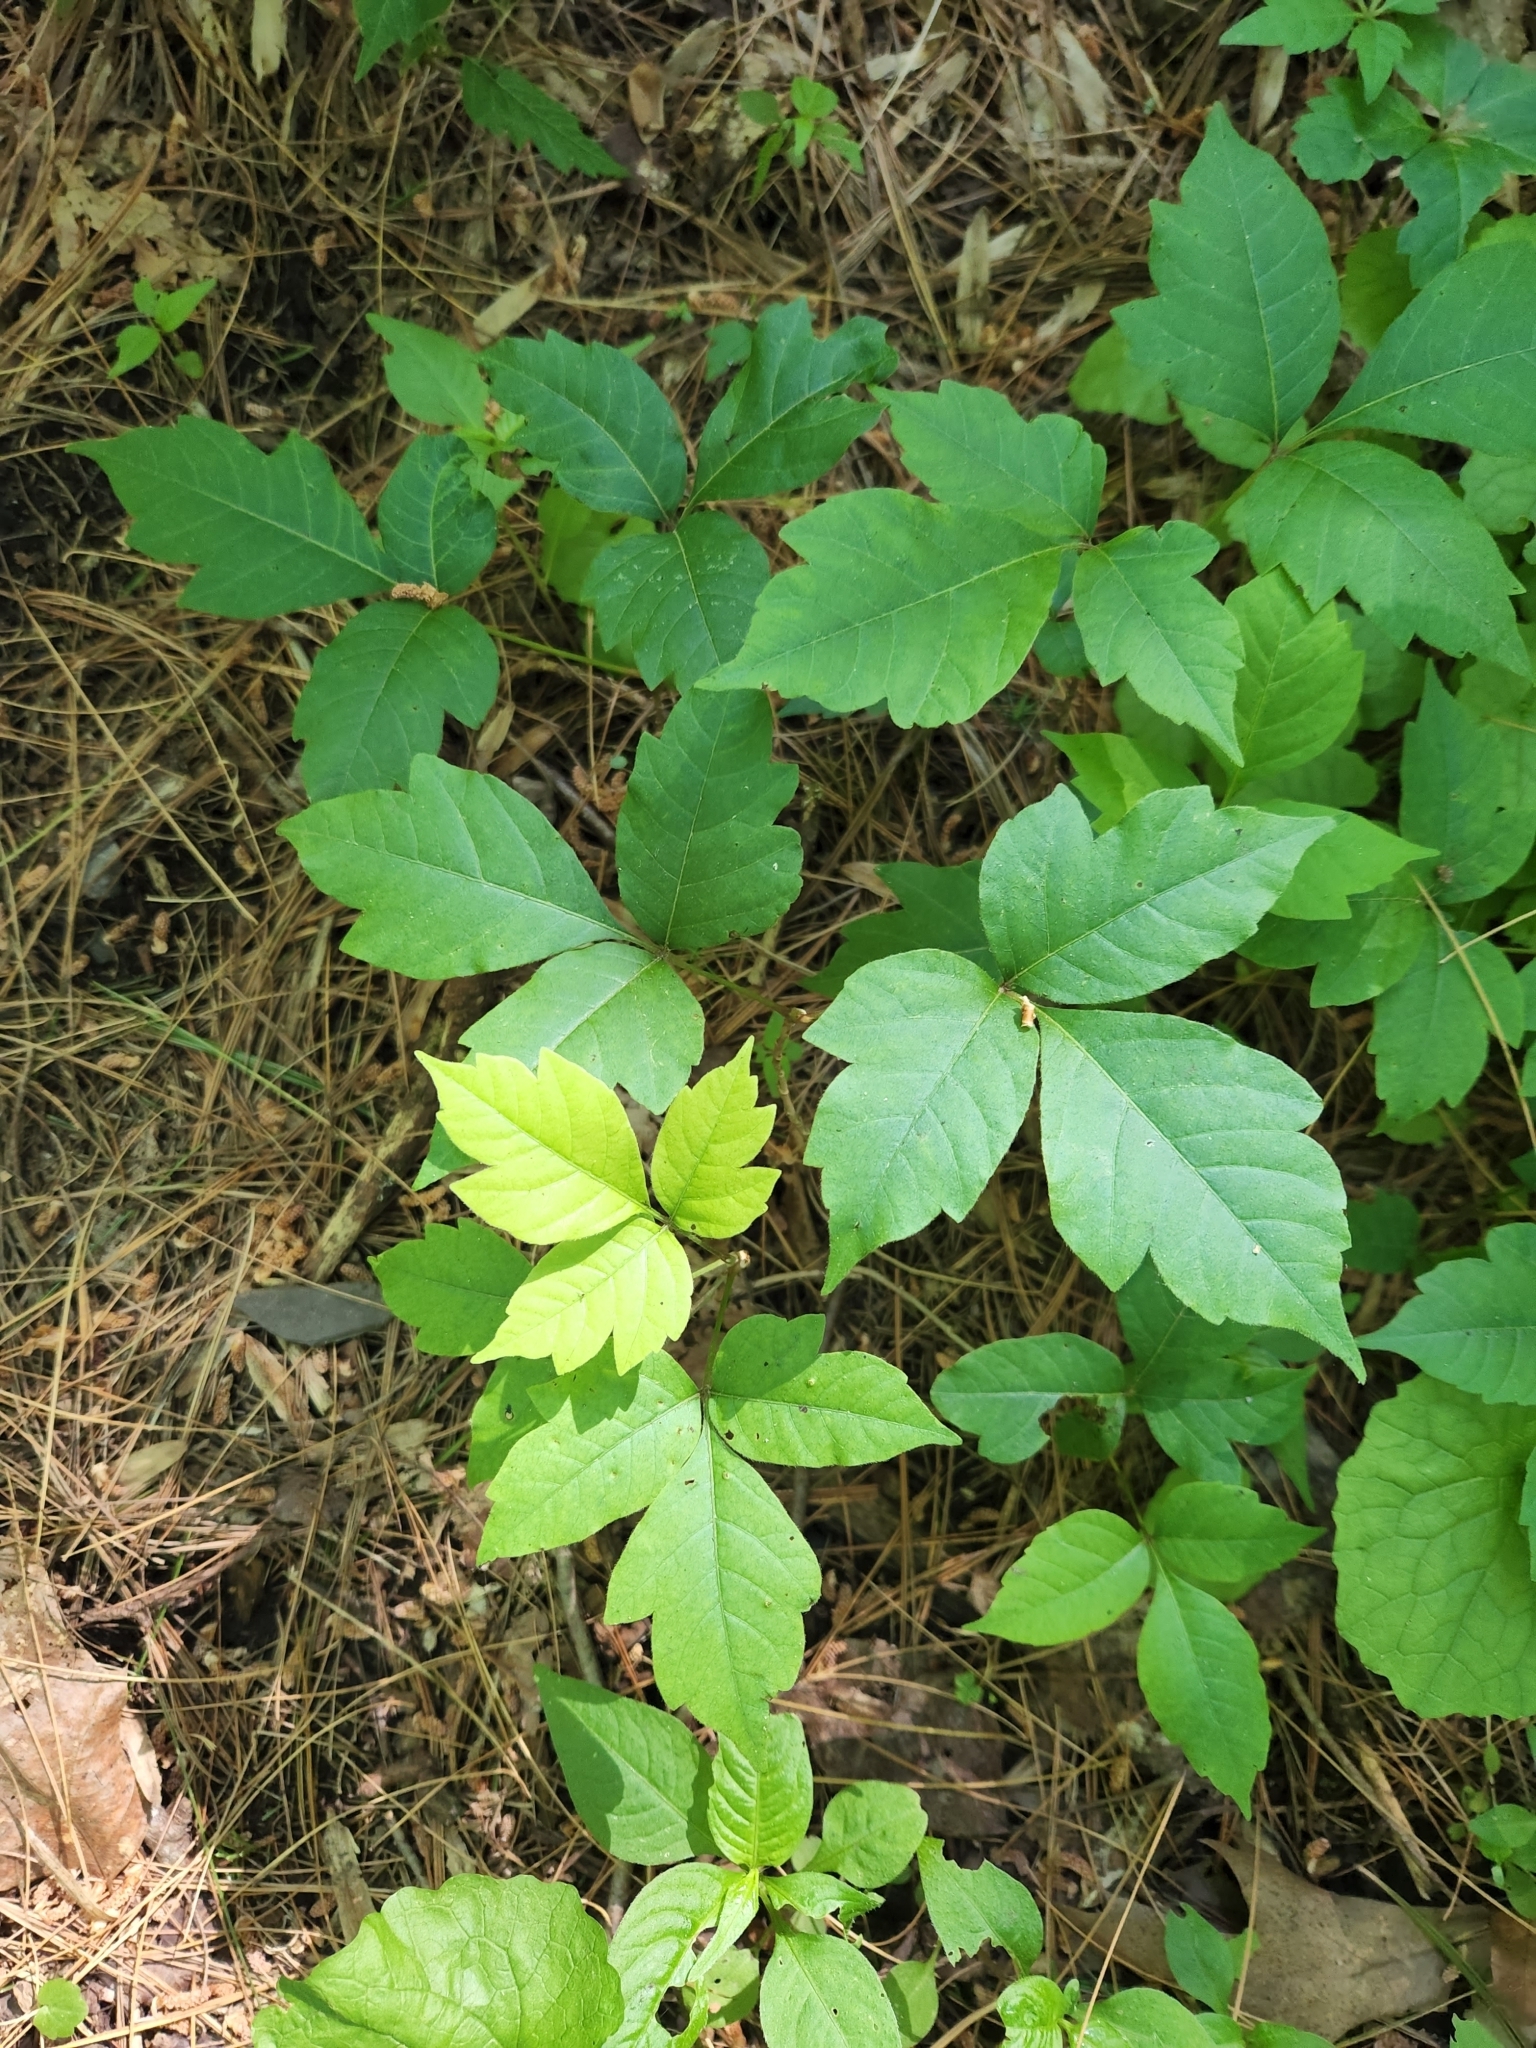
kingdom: Plantae
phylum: Tracheophyta
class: Magnoliopsida
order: Sapindales
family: Anacardiaceae
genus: Toxicodendron
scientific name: Toxicodendron radicans
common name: Poison ivy
